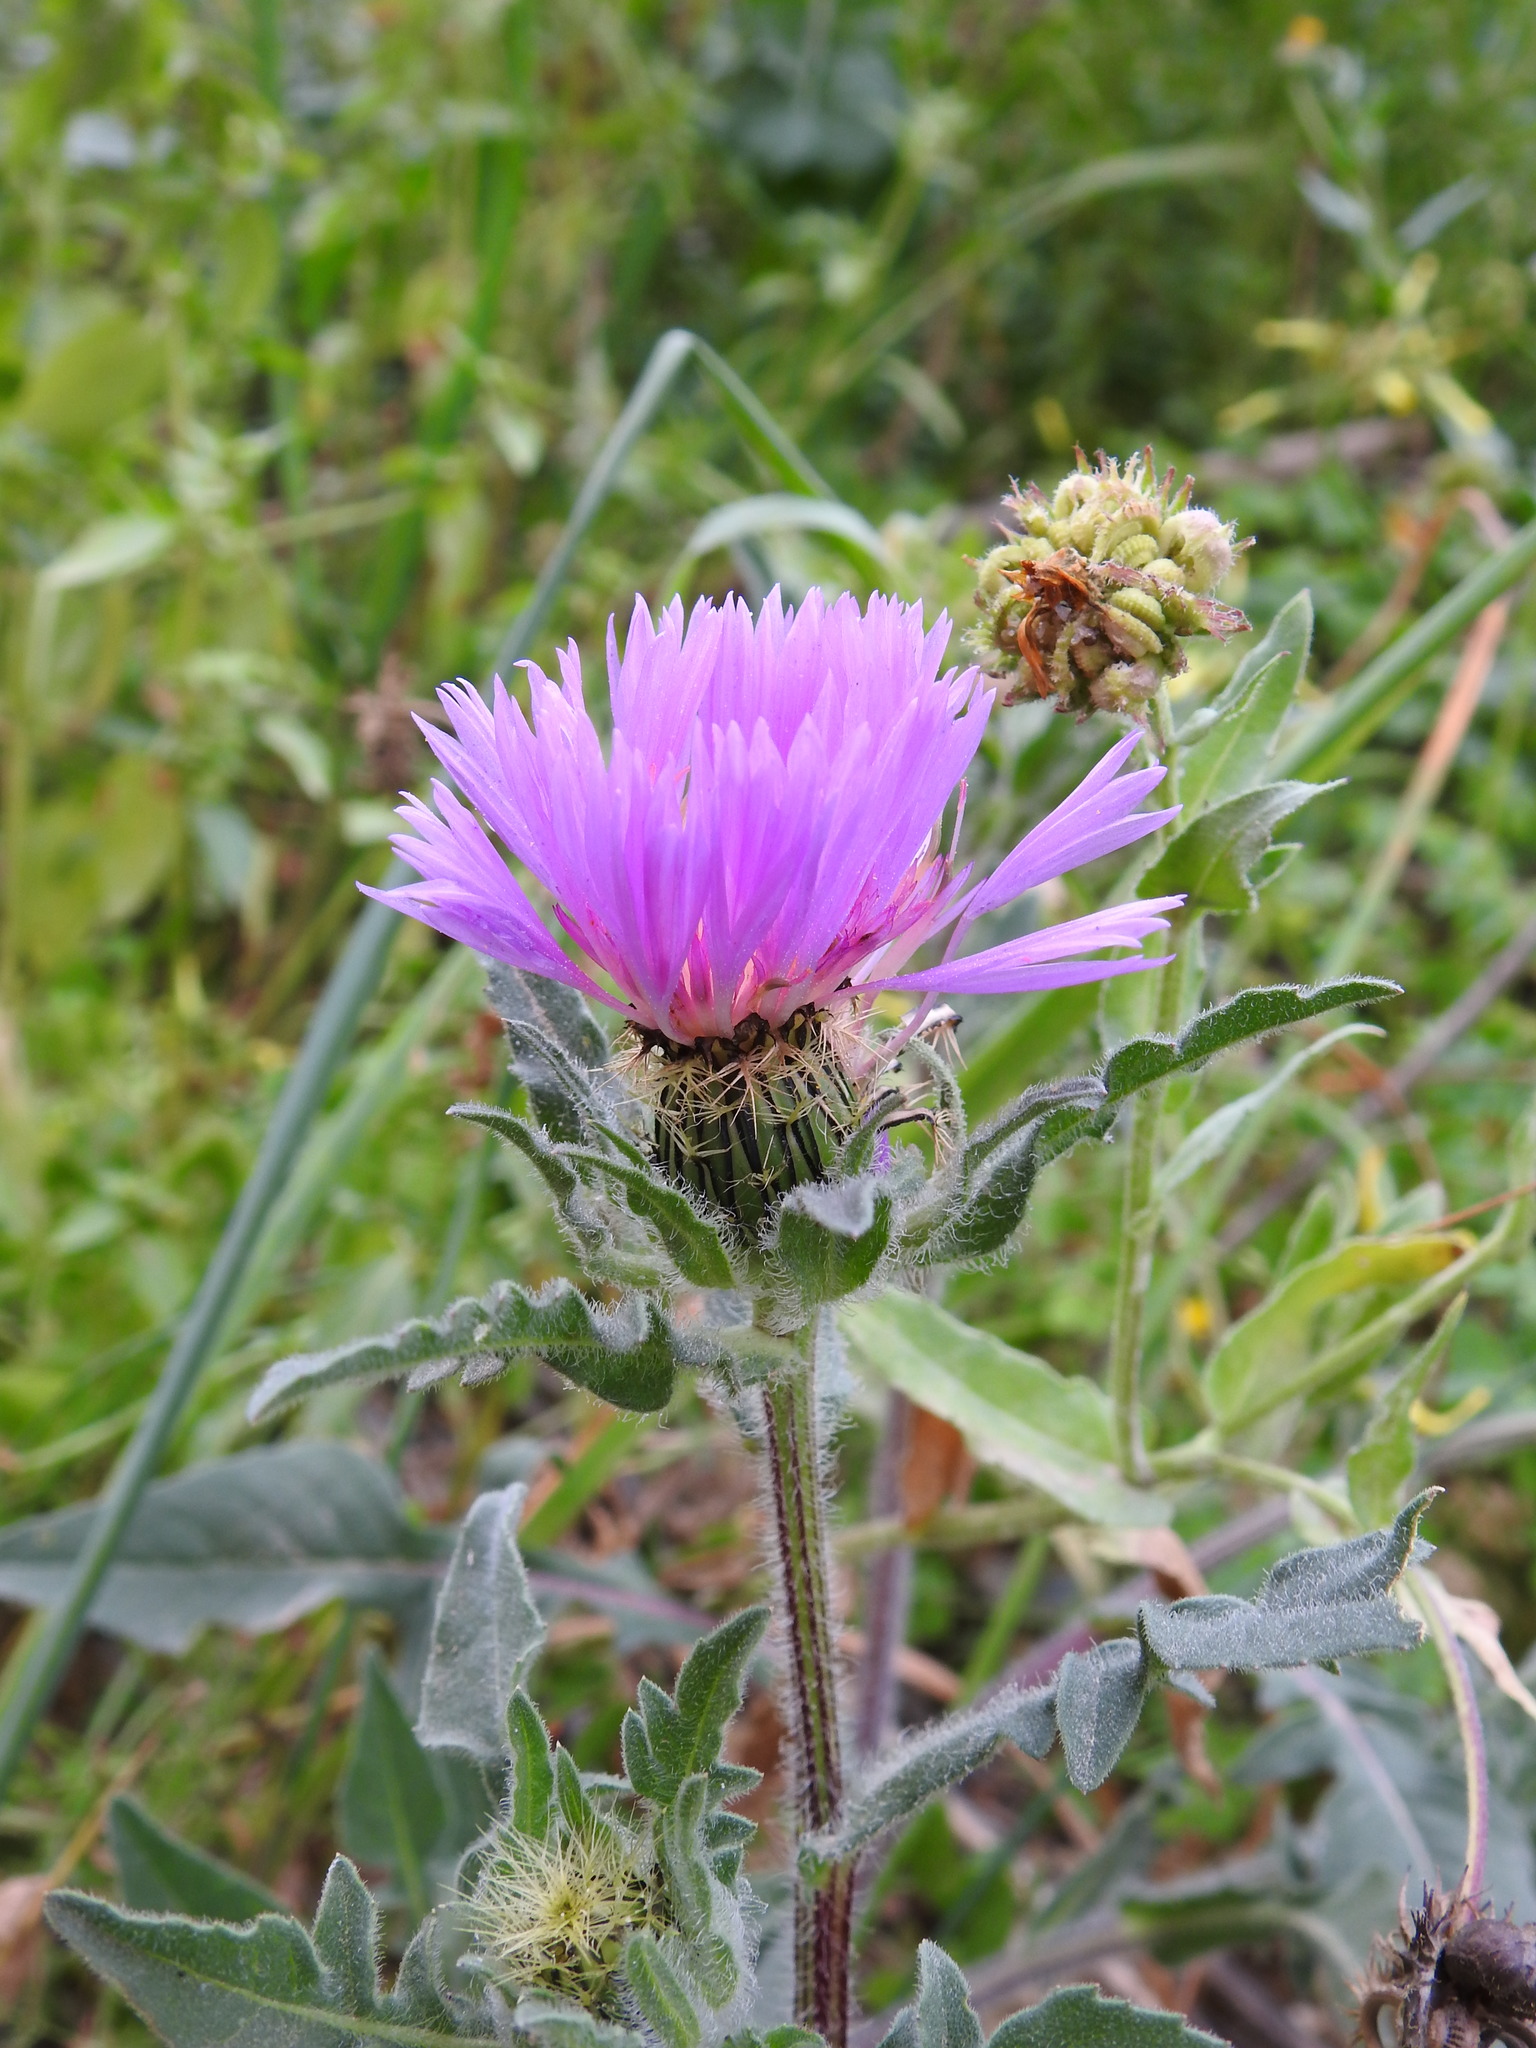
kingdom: Plantae
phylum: Tracheophyta
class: Magnoliopsida
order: Asterales
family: Asteraceae
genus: Centaurea
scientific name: Centaurea pullata
